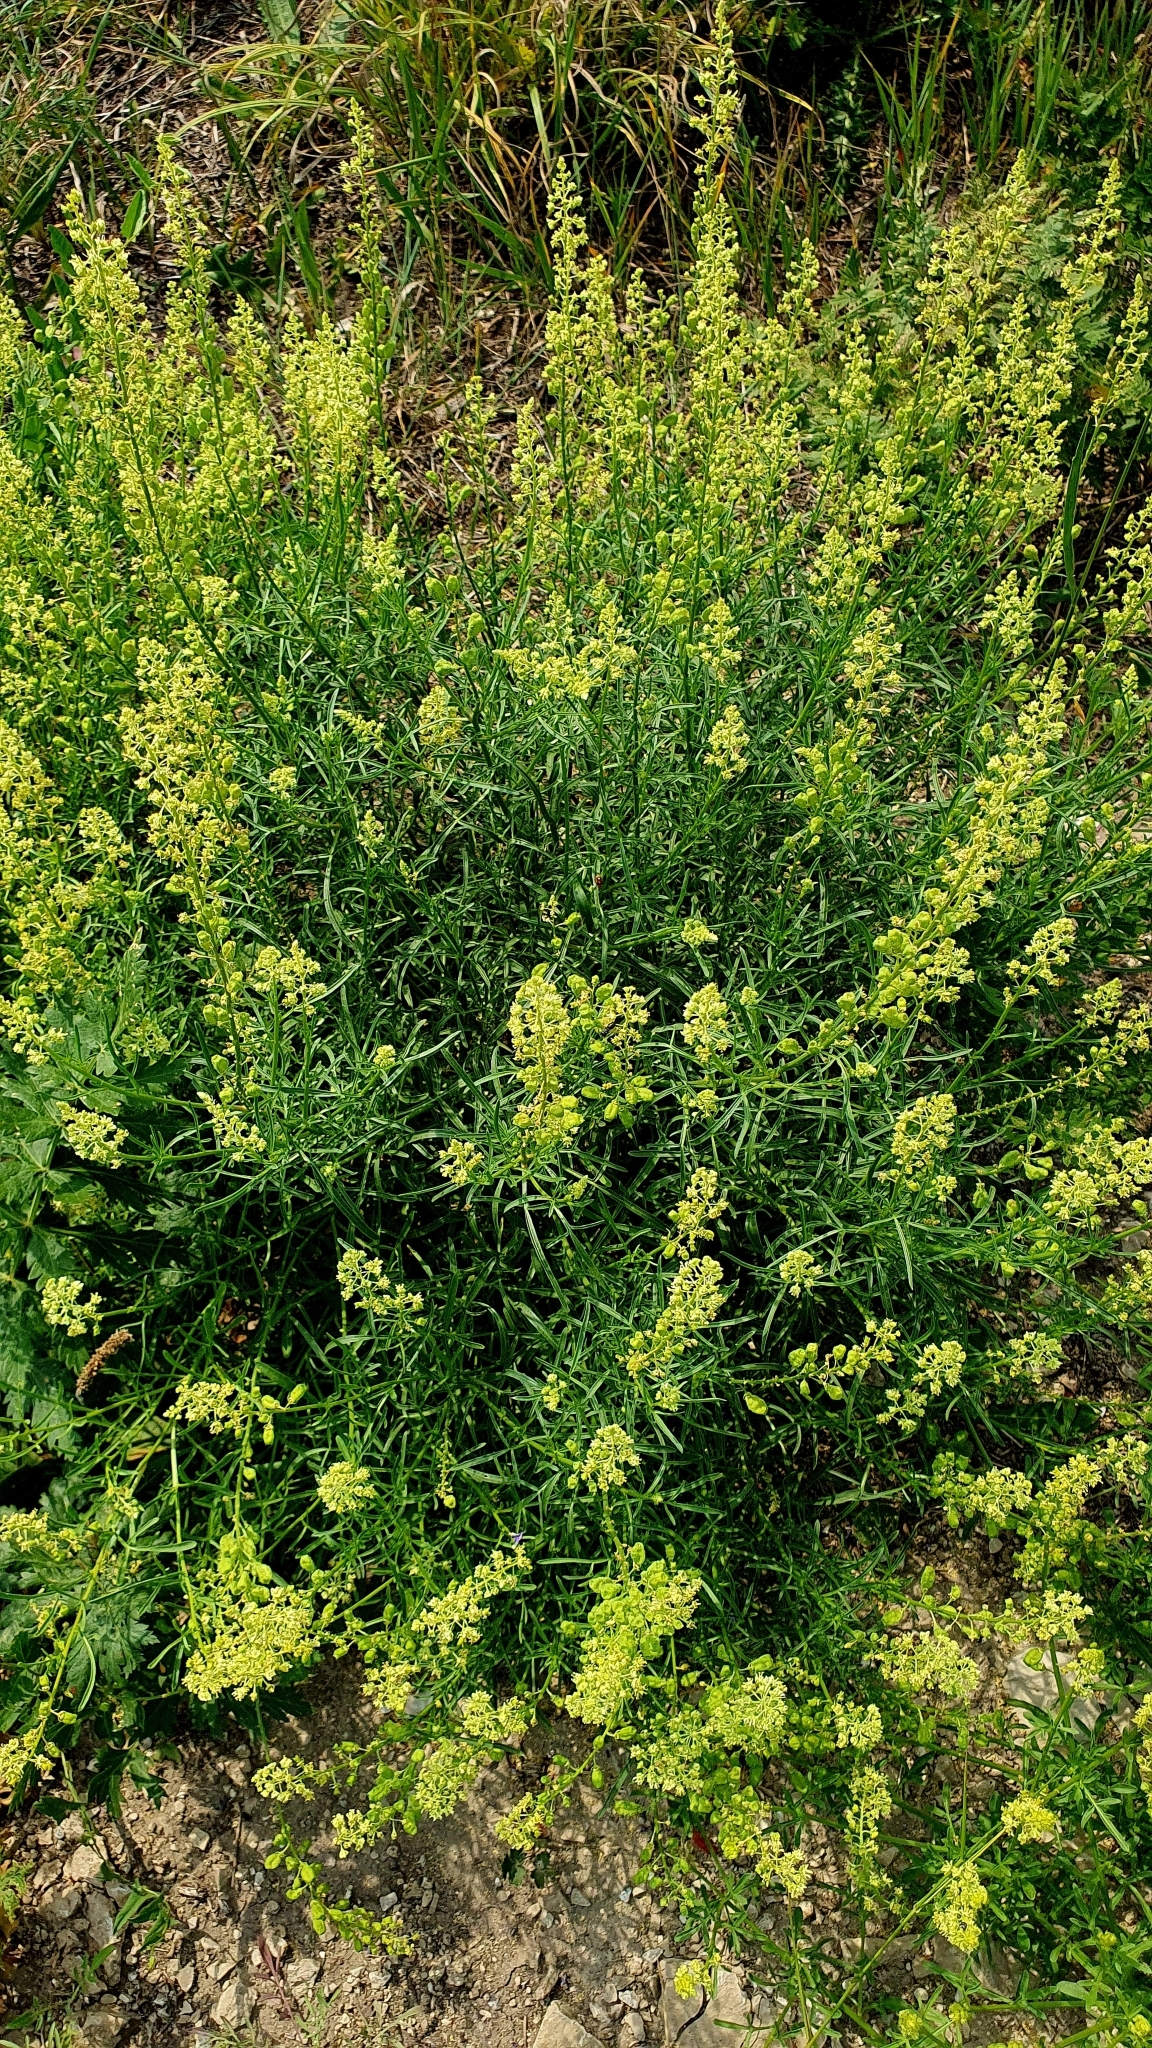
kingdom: Plantae
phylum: Tracheophyta
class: Magnoliopsida
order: Brassicales
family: Resedaceae
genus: Reseda
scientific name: Reseda lutea
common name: Wild mignonette
